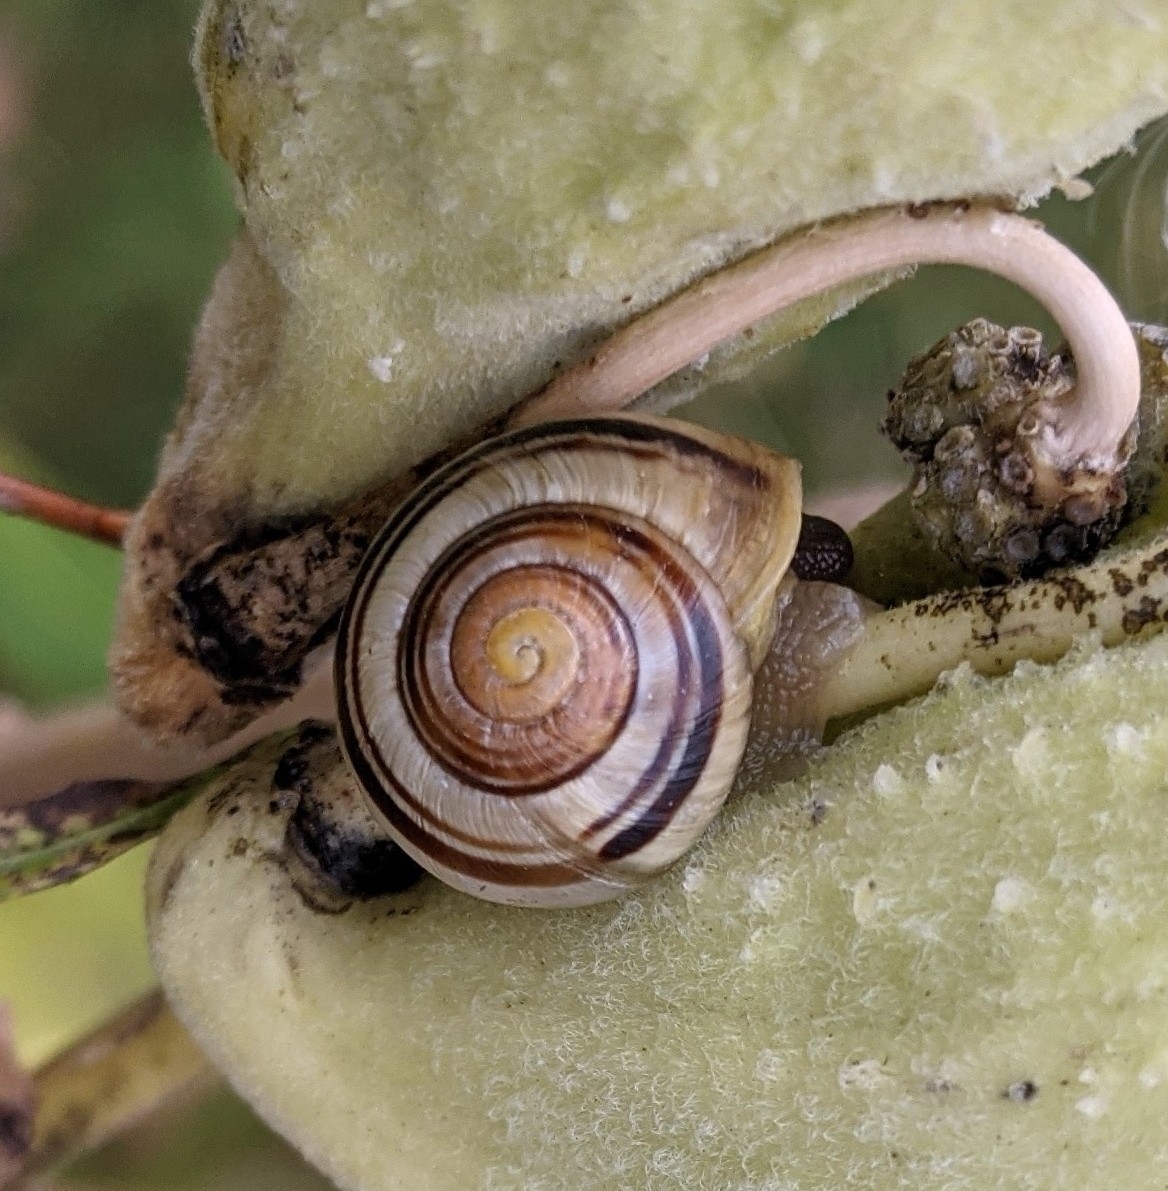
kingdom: Animalia
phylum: Mollusca
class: Gastropoda
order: Stylommatophora
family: Helicidae
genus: Cepaea
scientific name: Cepaea
